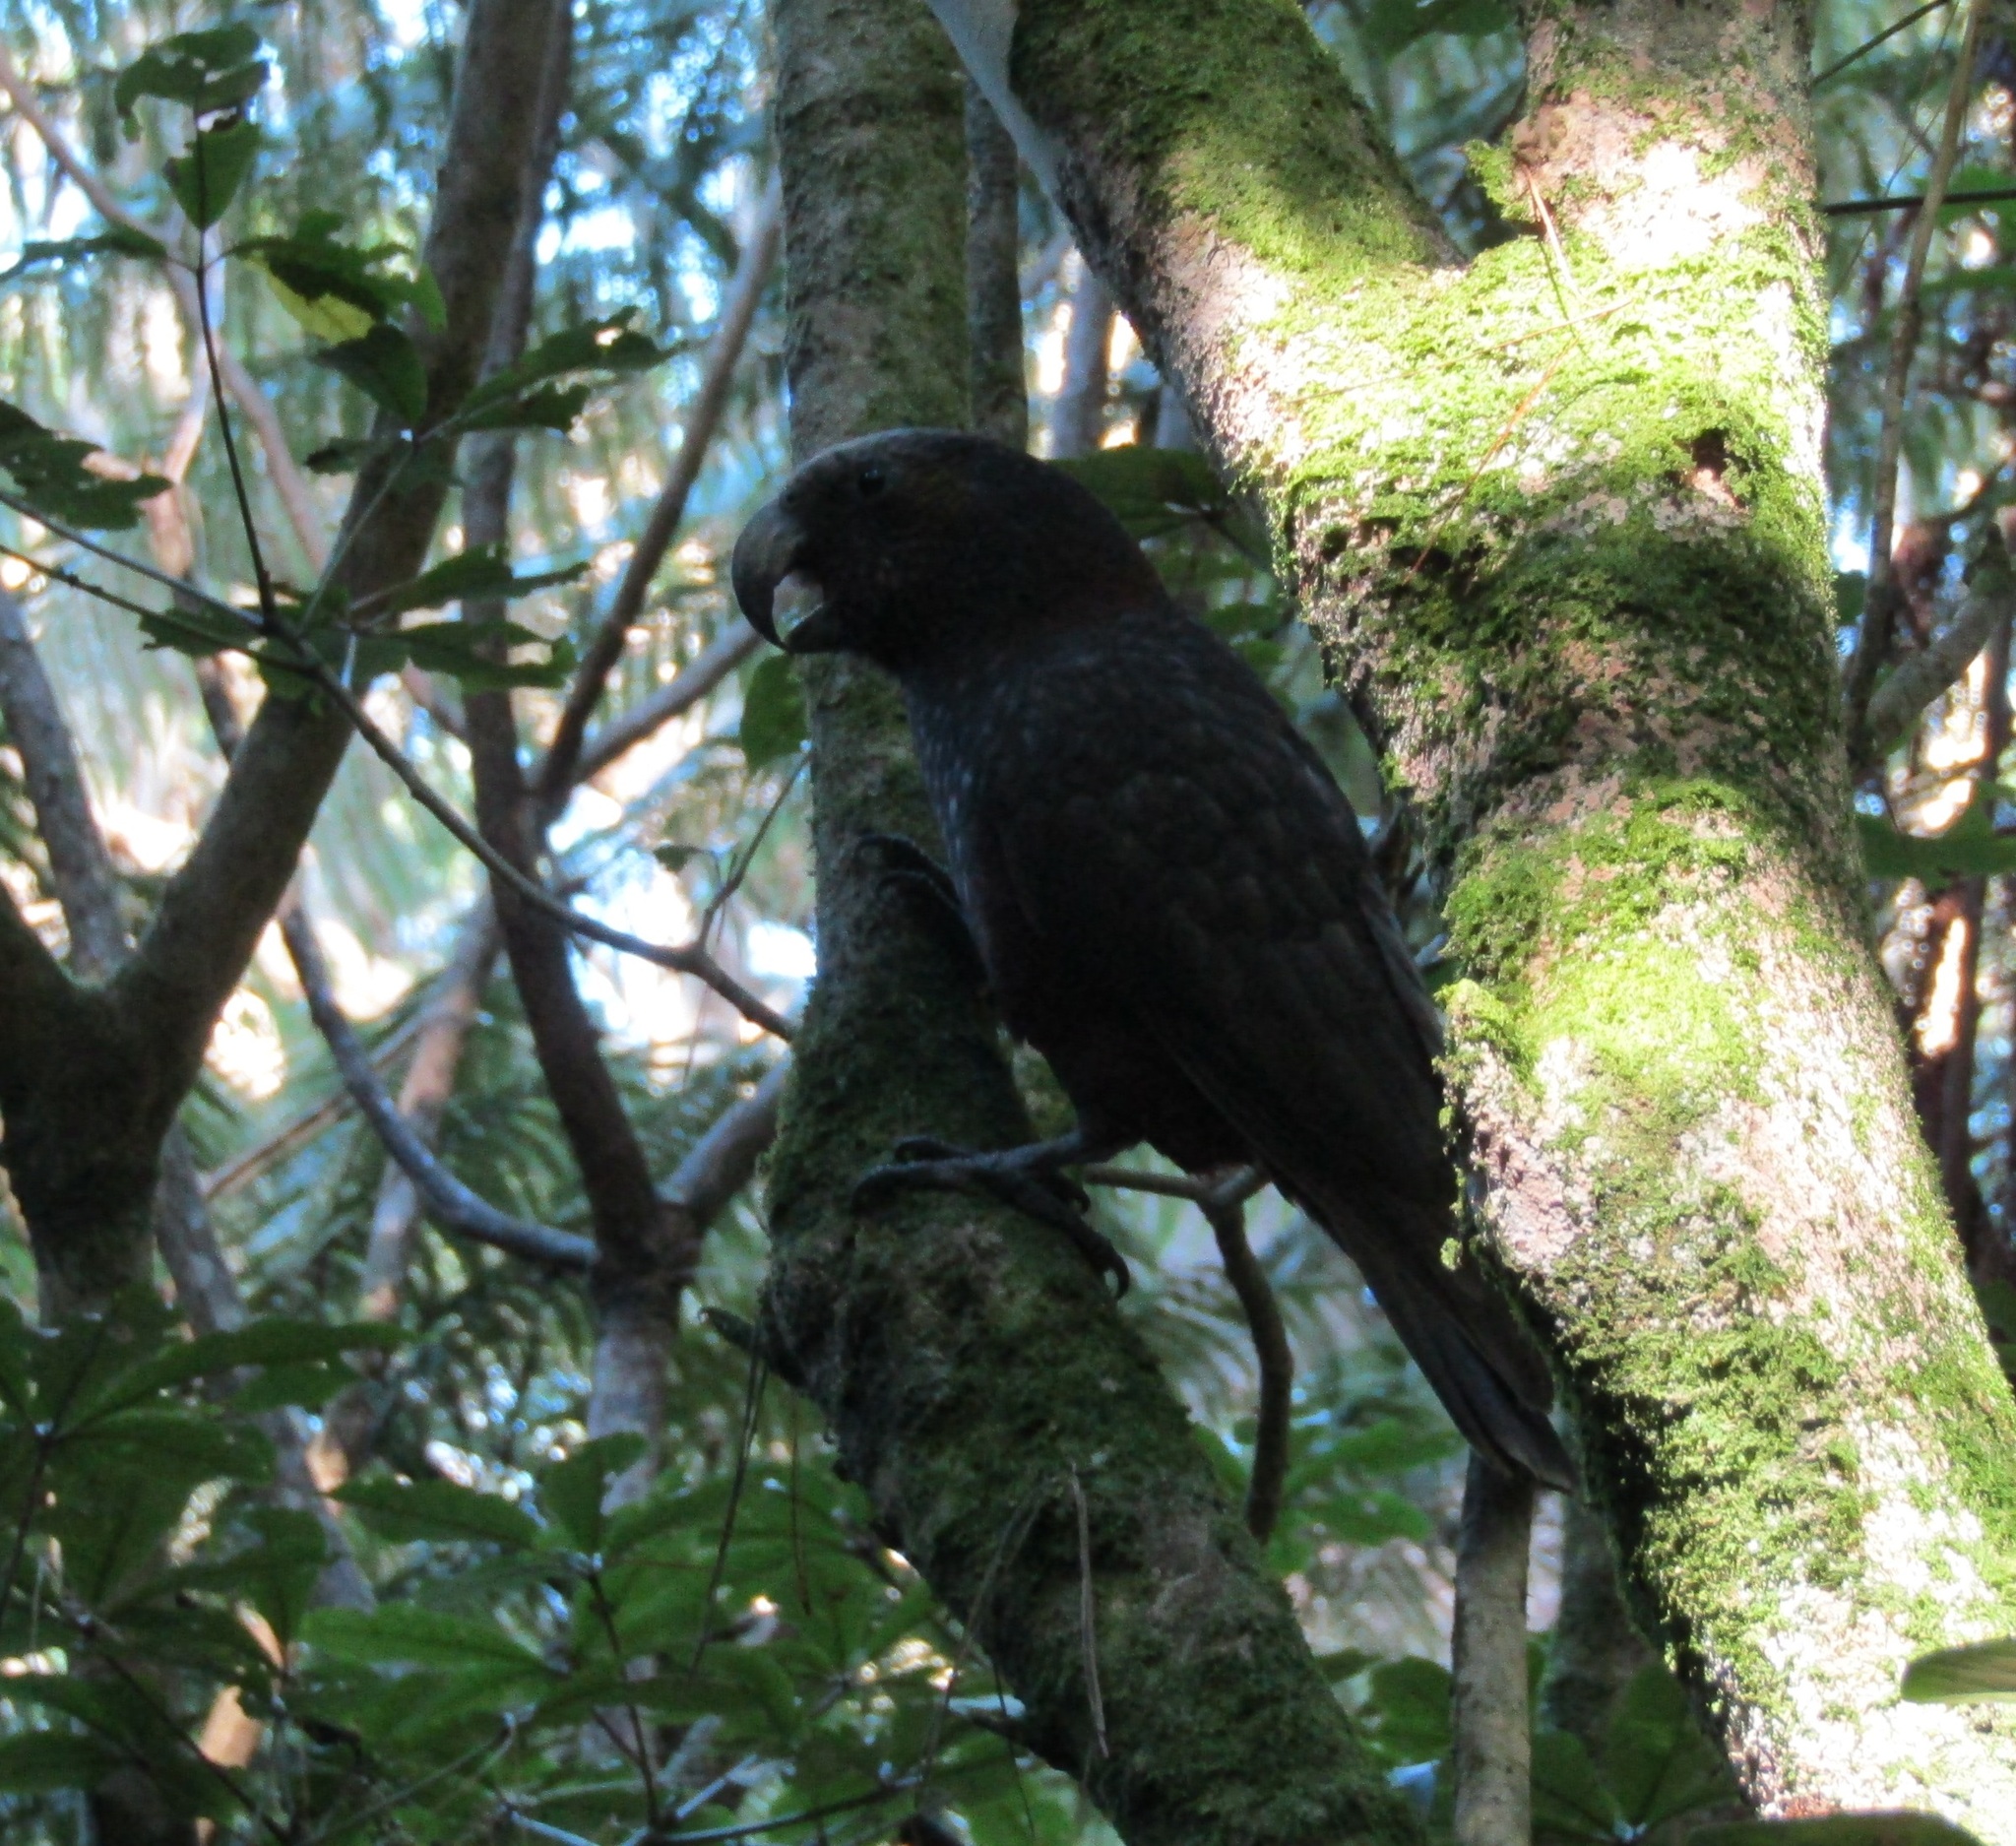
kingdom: Animalia
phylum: Chordata
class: Aves
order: Psittaciformes
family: Psittacidae
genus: Nestor
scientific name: Nestor meridionalis
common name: New zealand kaka
